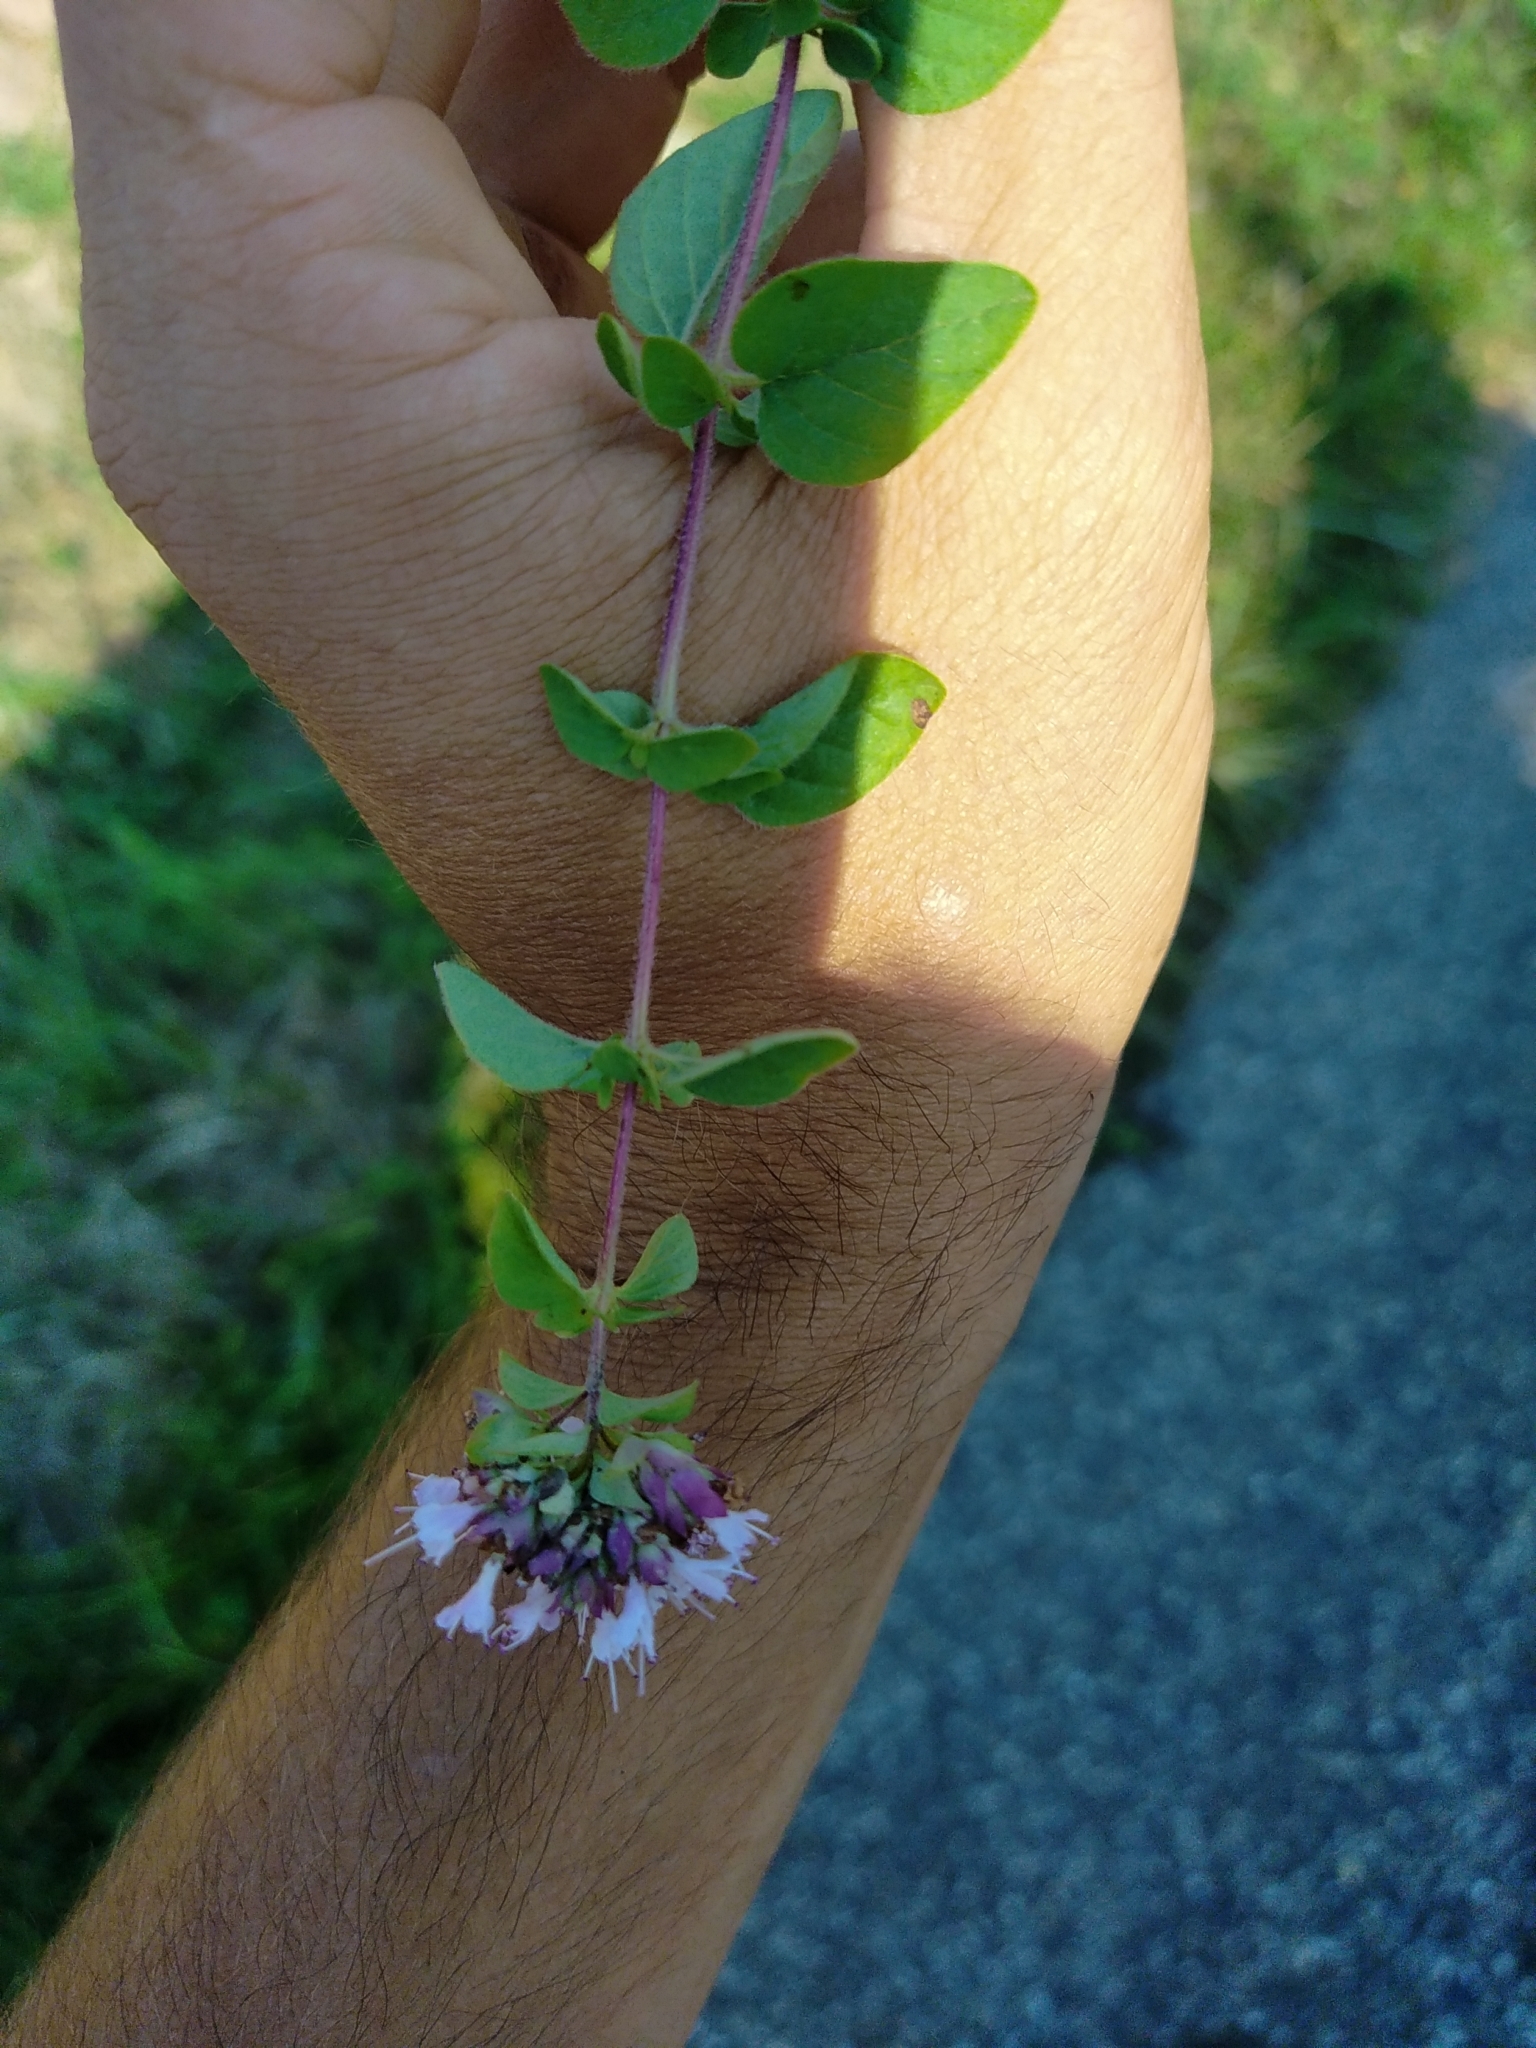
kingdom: Plantae
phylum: Tracheophyta
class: Magnoliopsida
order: Lamiales
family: Lamiaceae
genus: Origanum
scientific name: Origanum vulgare
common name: Wild marjoram
